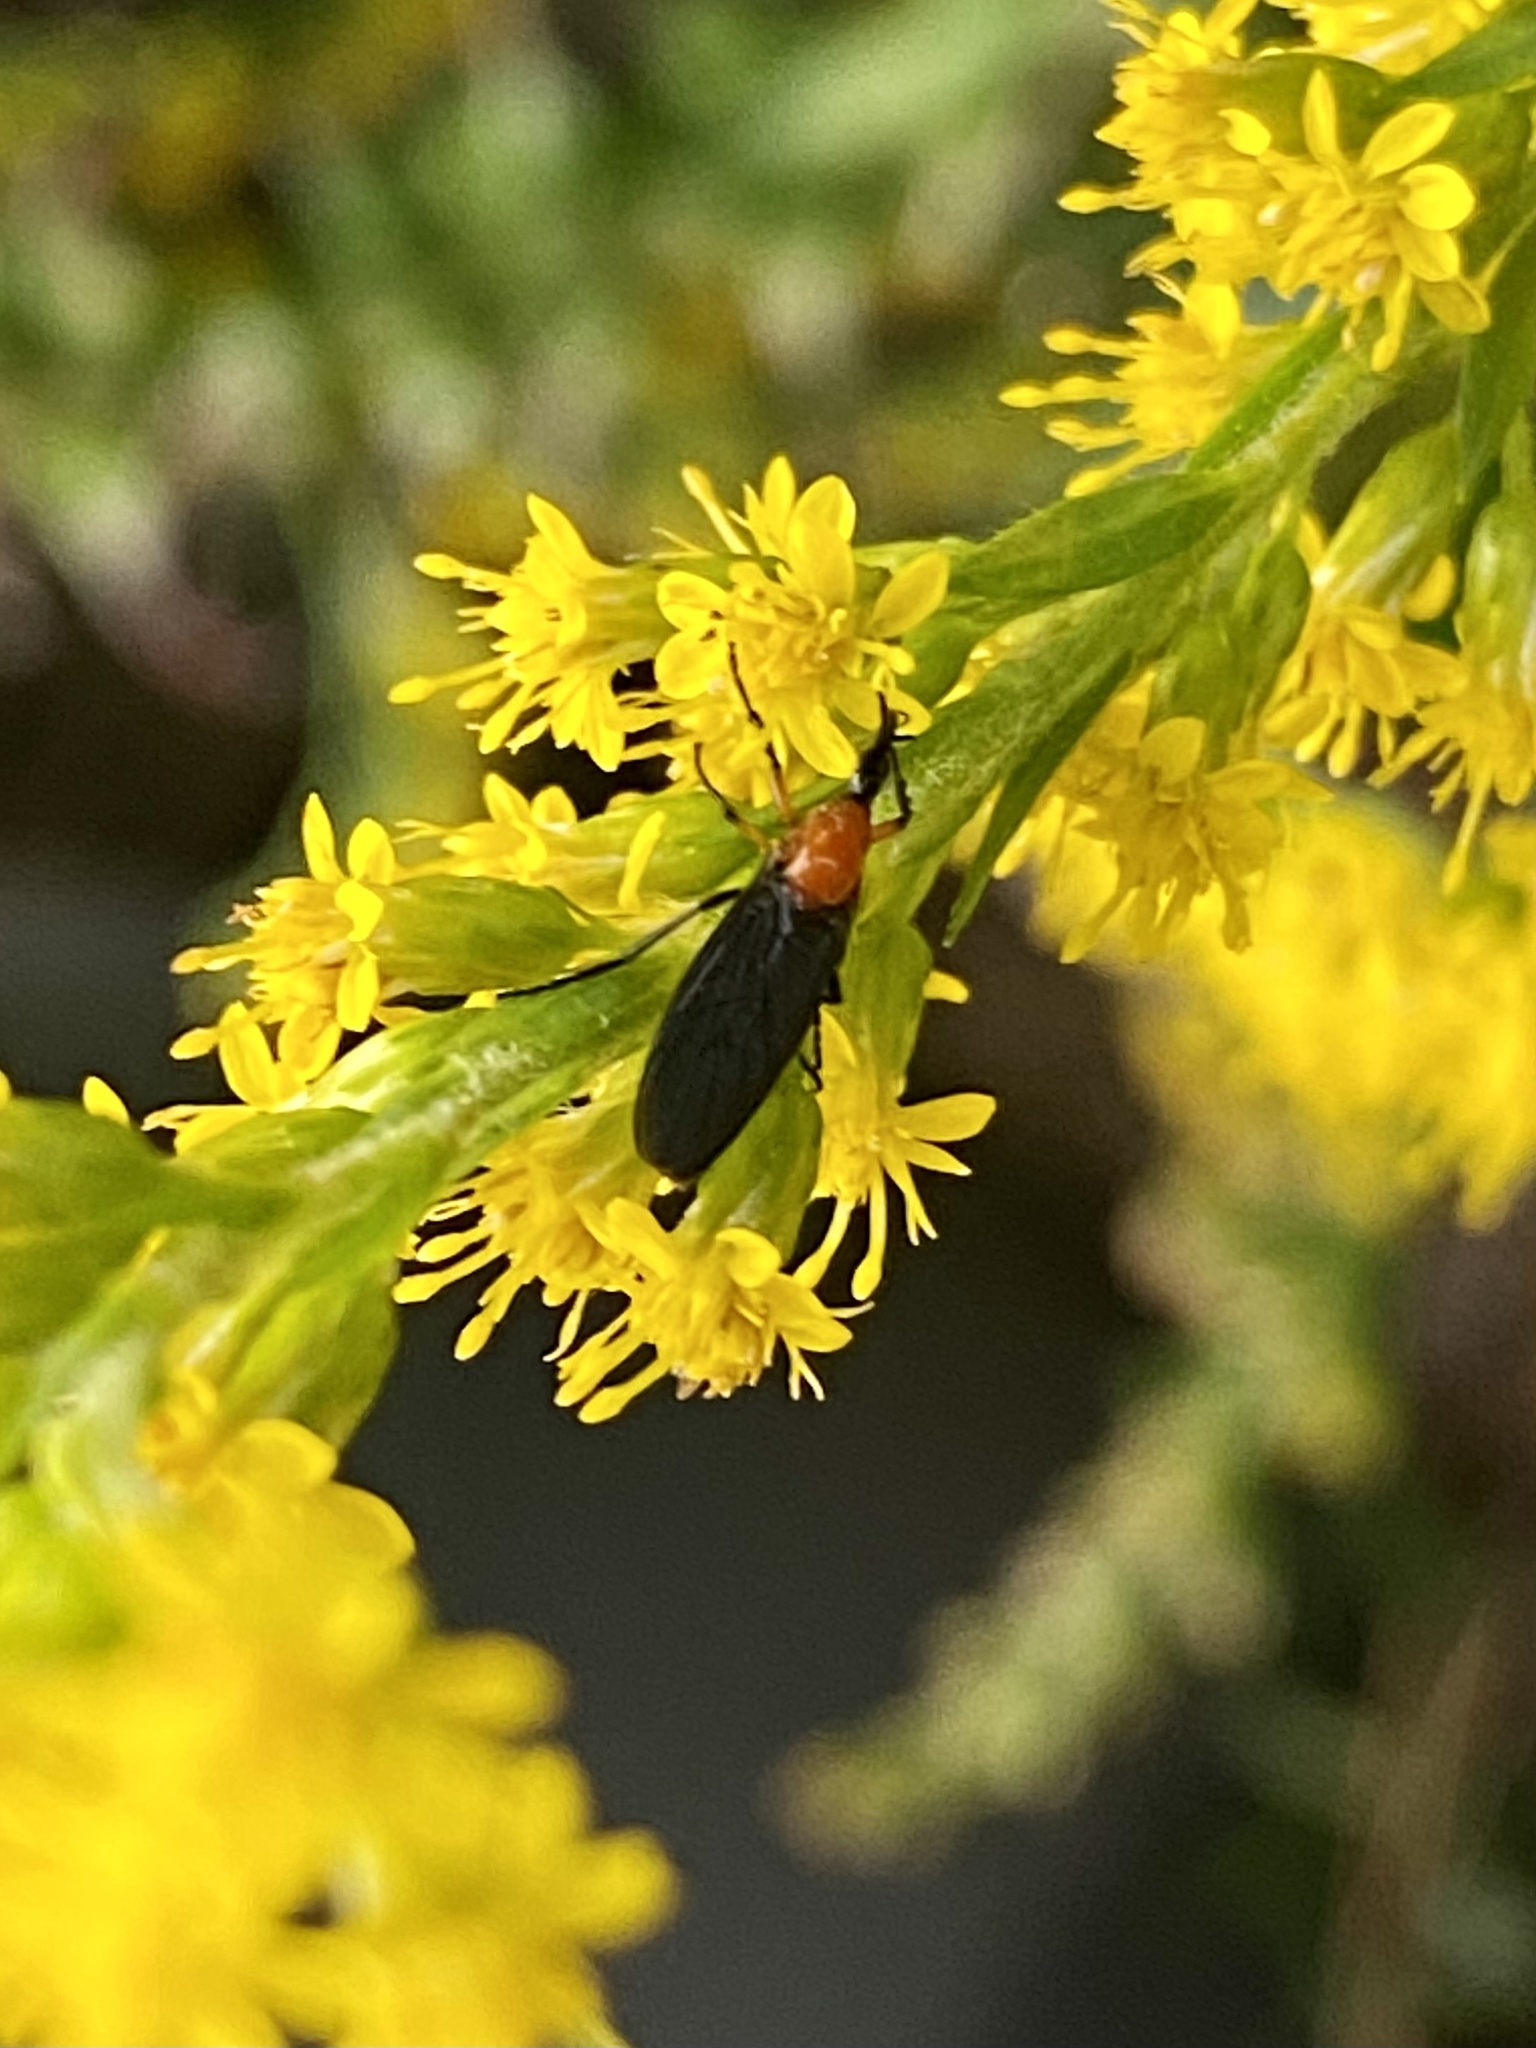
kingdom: Animalia
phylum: Arthropoda
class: Insecta
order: Diptera
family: Bibionidae
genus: Dilophus
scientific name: Dilophus spinipes
